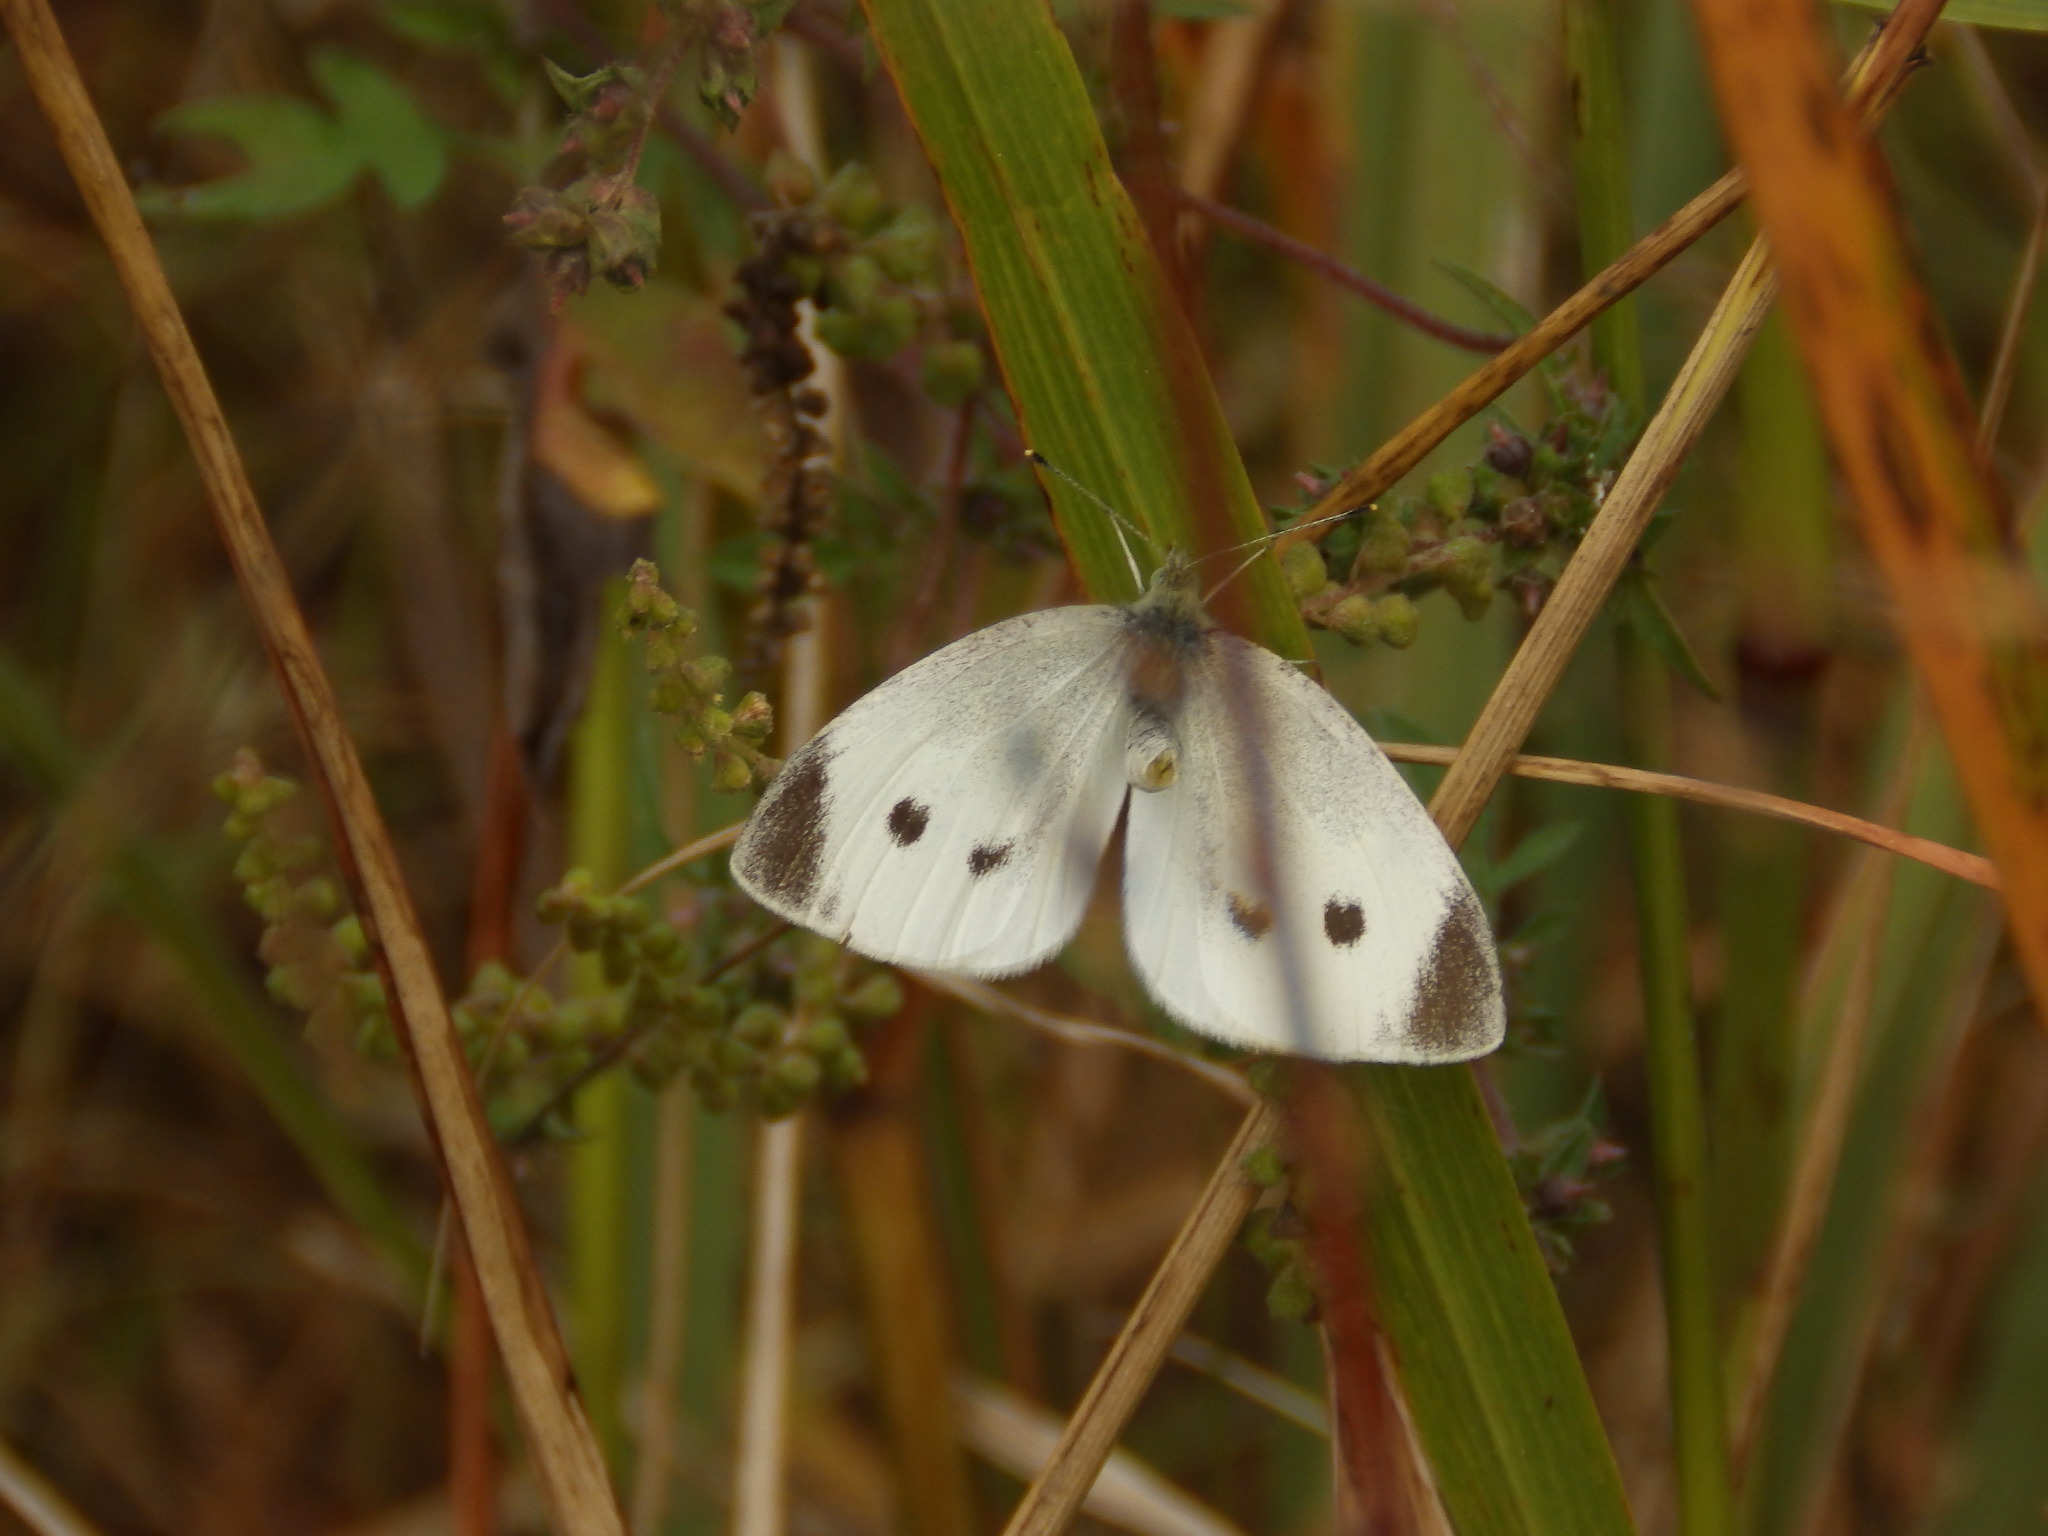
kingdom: Animalia
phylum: Arthropoda
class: Insecta
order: Lepidoptera
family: Pieridae
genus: Pieris
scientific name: Pieris rapae
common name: Small white
